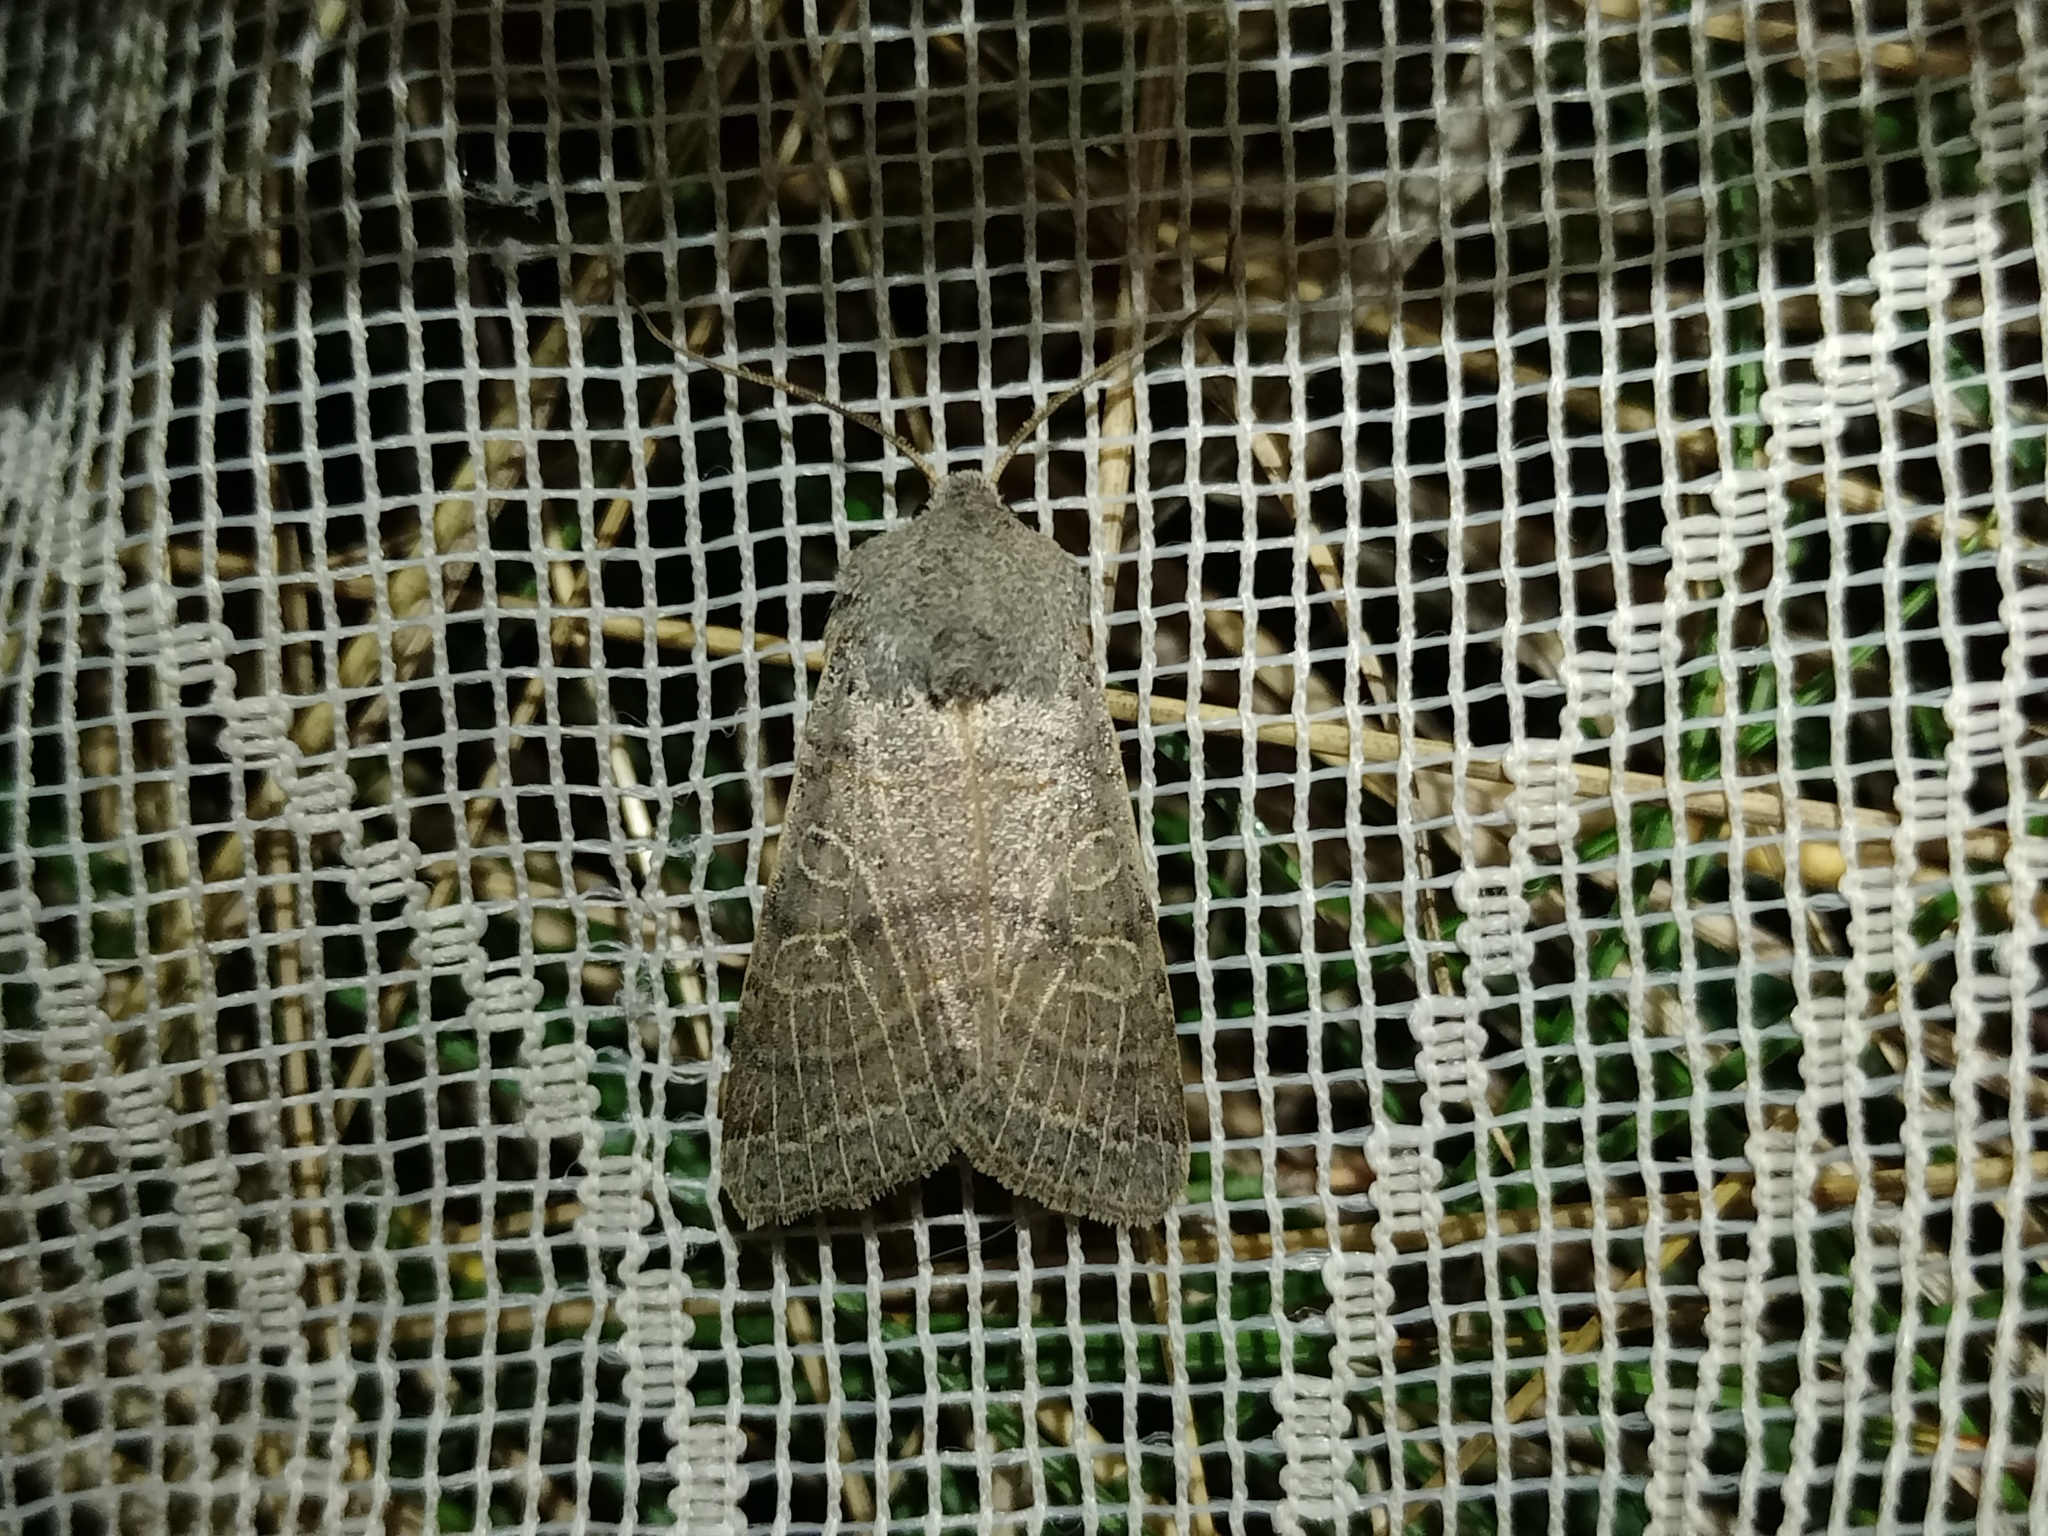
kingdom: Animalia
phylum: Arthropoda
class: Insecta
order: Lepidoptera
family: Noctuidae
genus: Agrochola
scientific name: Agrochola humilis
